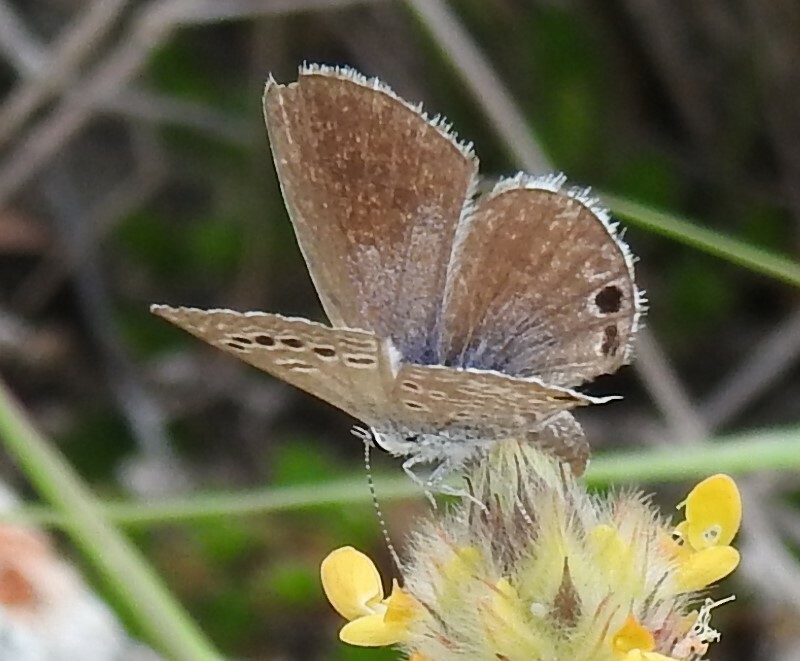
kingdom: Animalia
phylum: Arthropoda
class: Insecta
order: Lepidoptera
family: Lycaenidae
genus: Echinargus
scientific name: Echinargus isola
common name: Reakirt's blue
